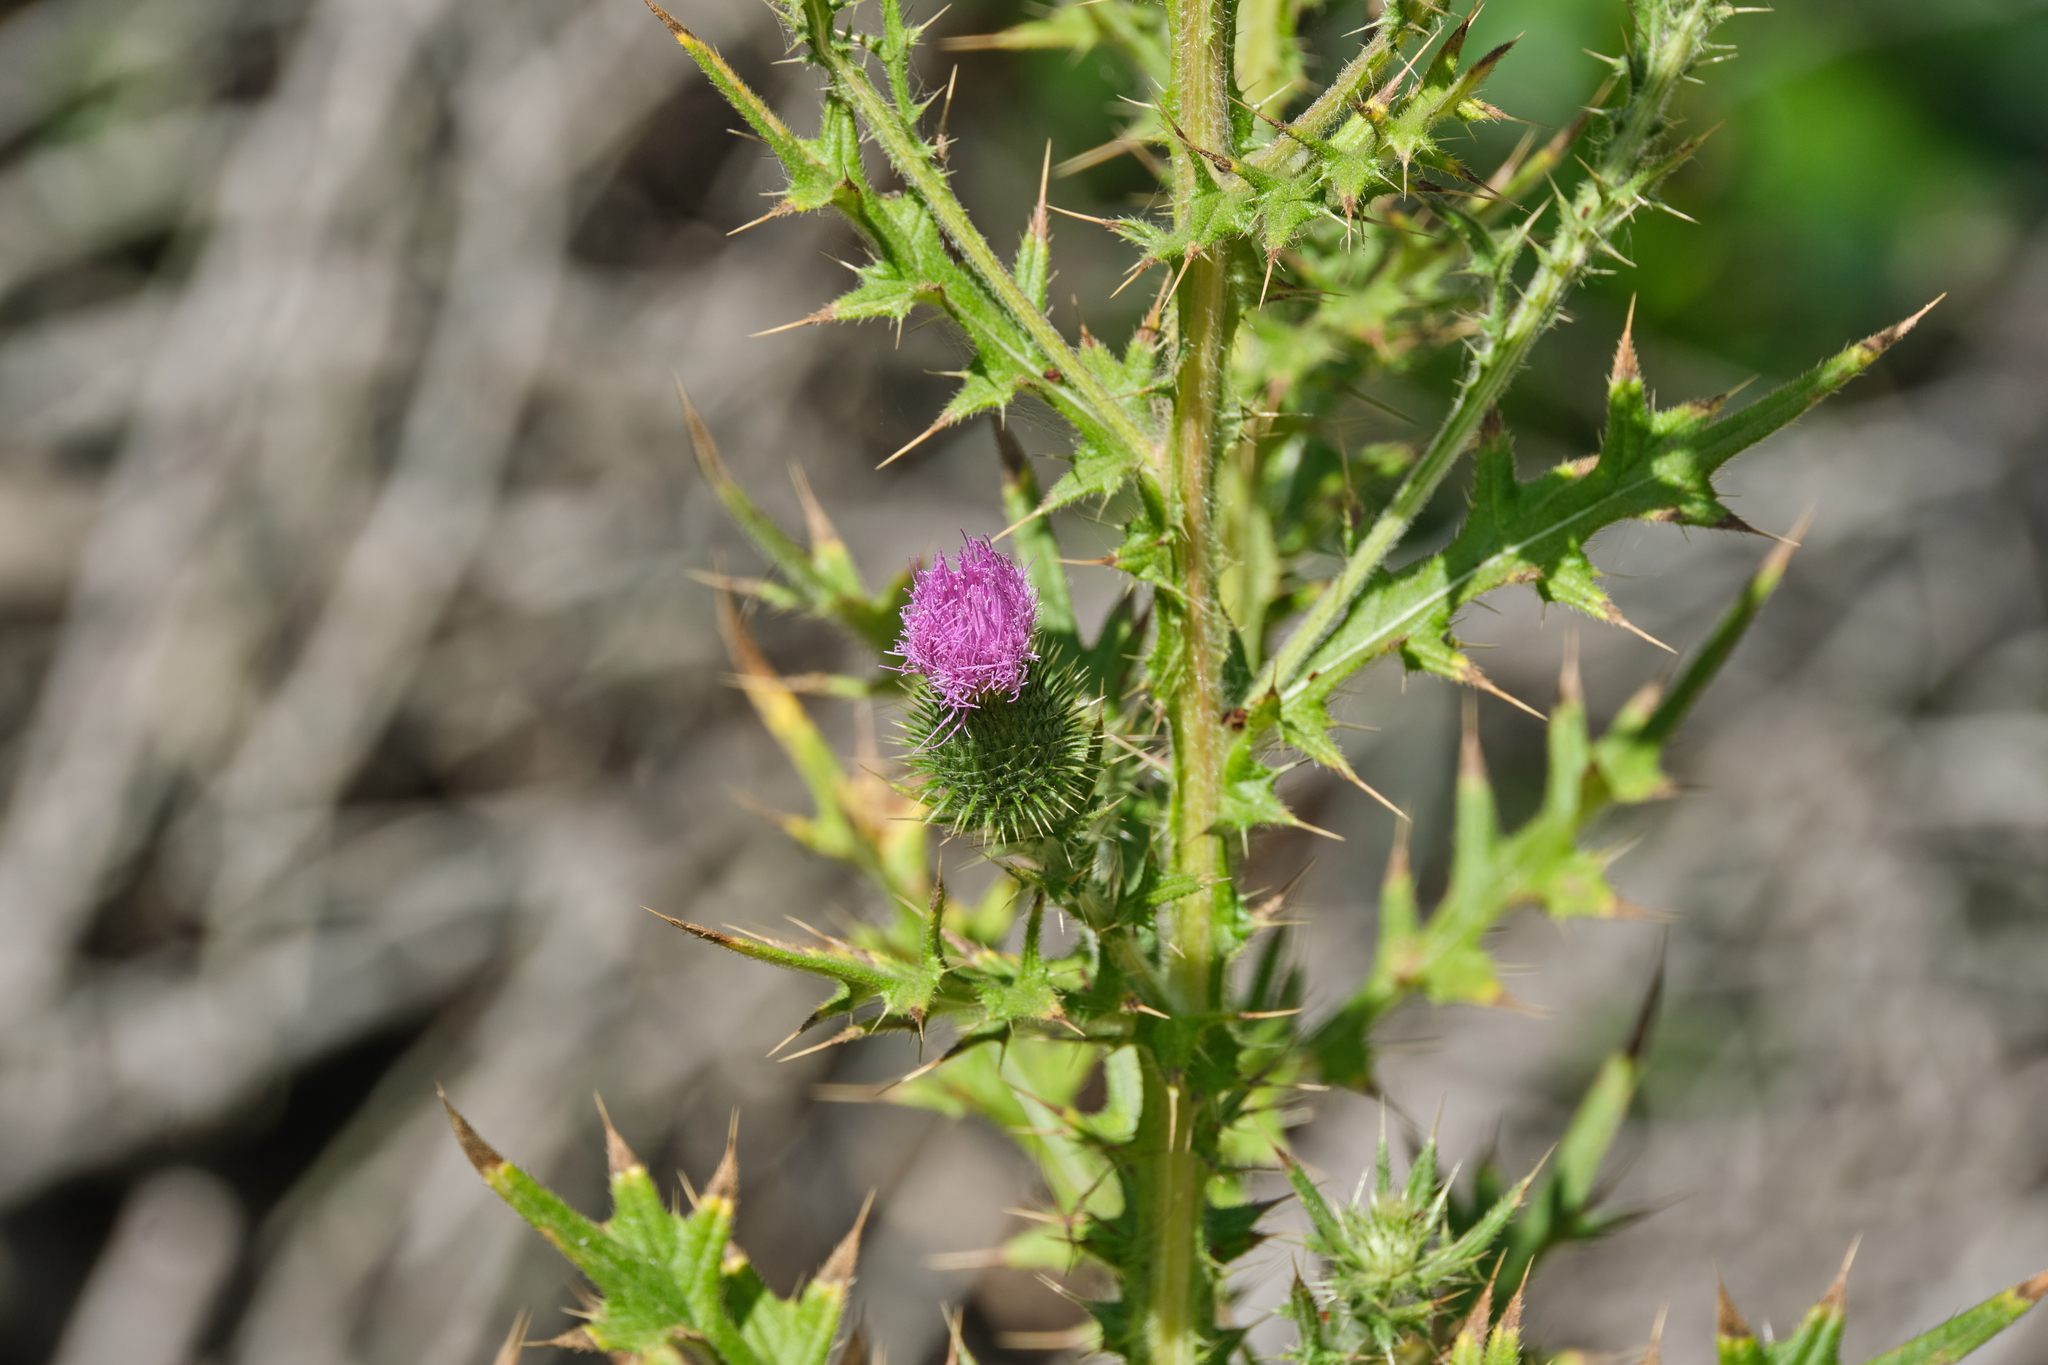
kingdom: Plantae
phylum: Tracheophyta
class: Magnoliopsida
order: Asterales
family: Asteraceae
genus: Cirsium
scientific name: Cirsium vulgare
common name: Bull thistle
